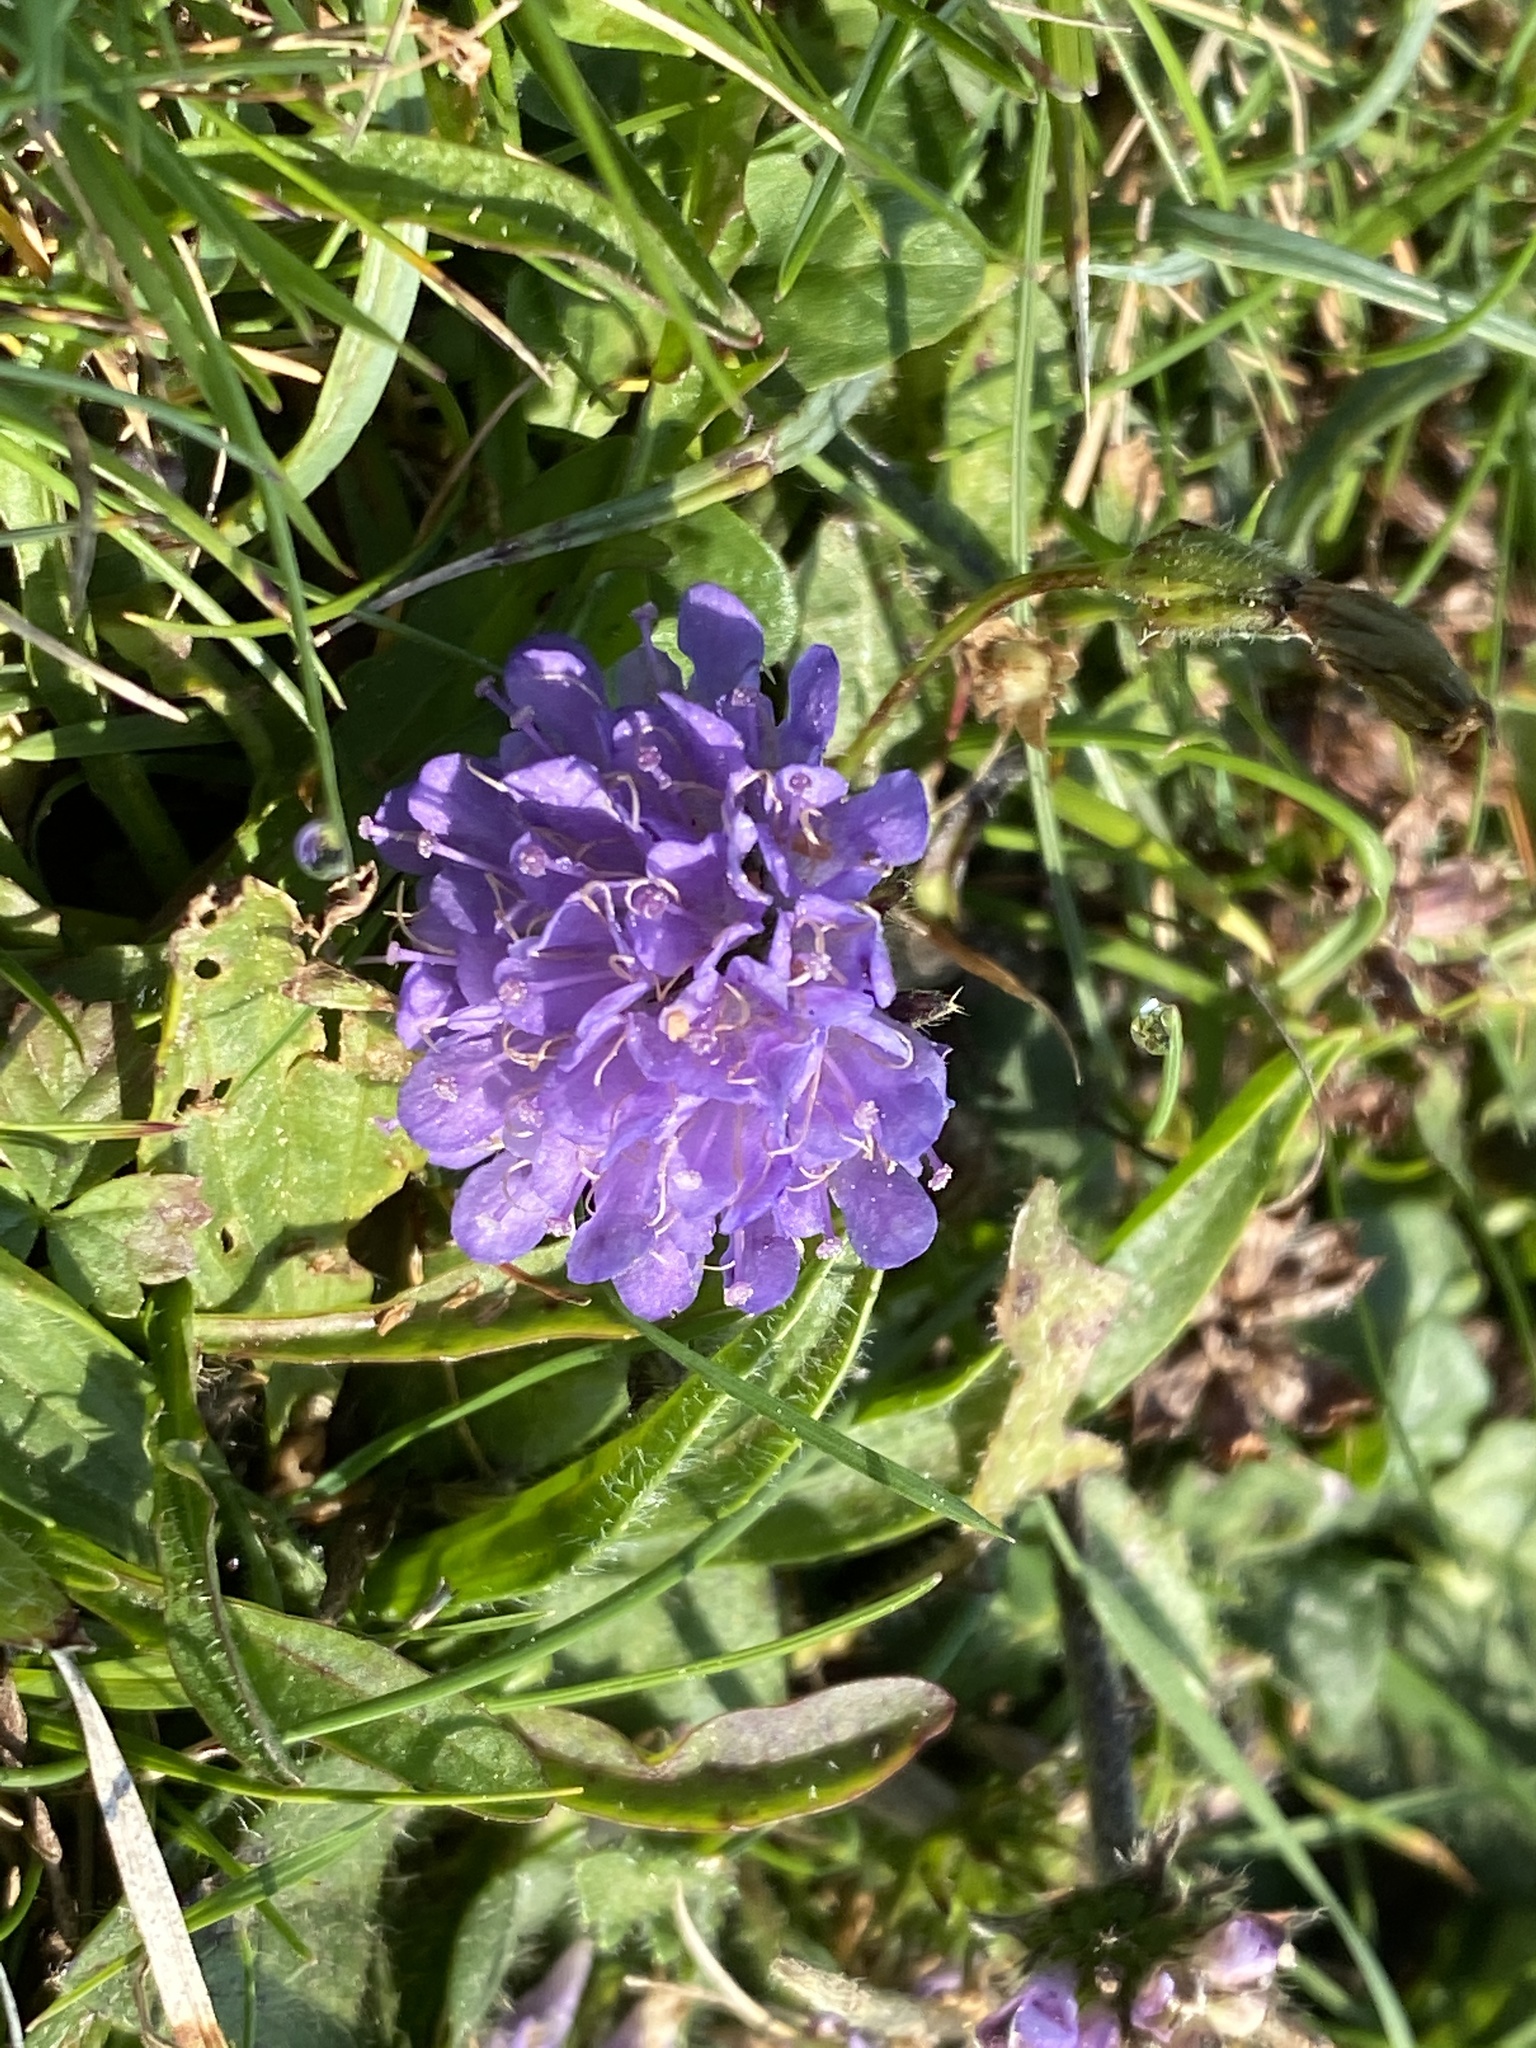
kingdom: Plantae
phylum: Tracheophyta
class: Magnoliopsida
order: Dipsacales
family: Caprifoliaceae
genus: Succisa
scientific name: Succisa pratensis
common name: Devil's-bit
